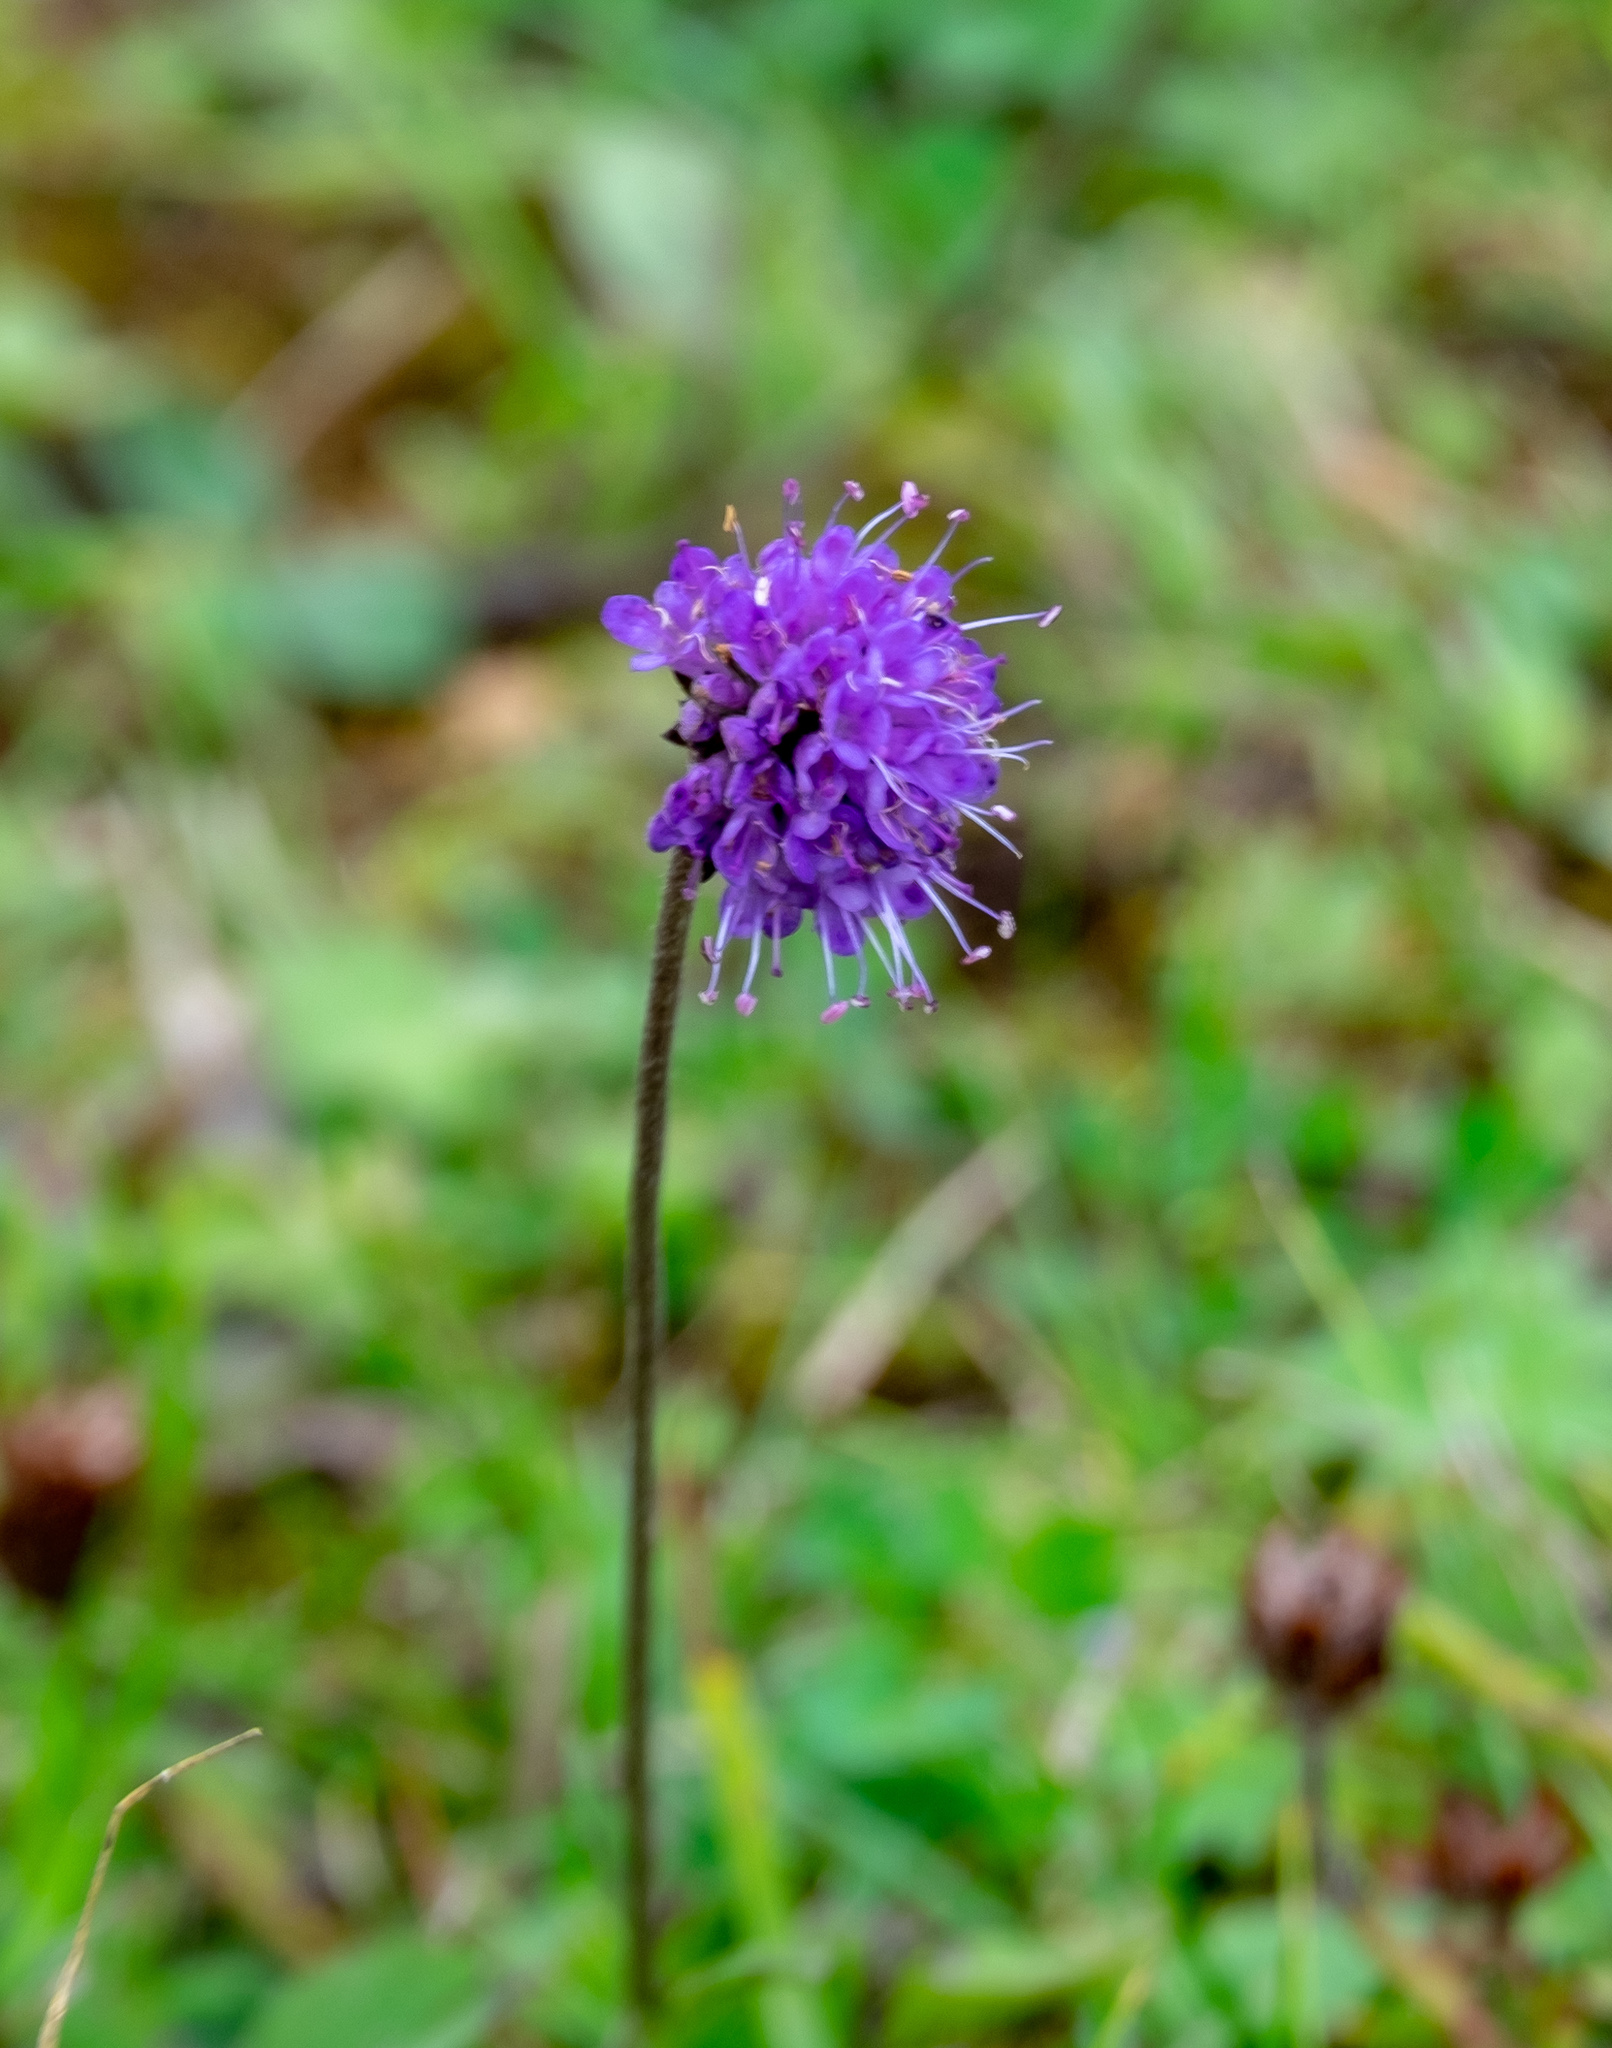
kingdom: Plantae
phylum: Tracheophyta
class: Magnoliopsida
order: Dipsacales
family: Caprifoliaceae
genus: Succisa
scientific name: Succisa pratensis
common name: Devil's-bit
